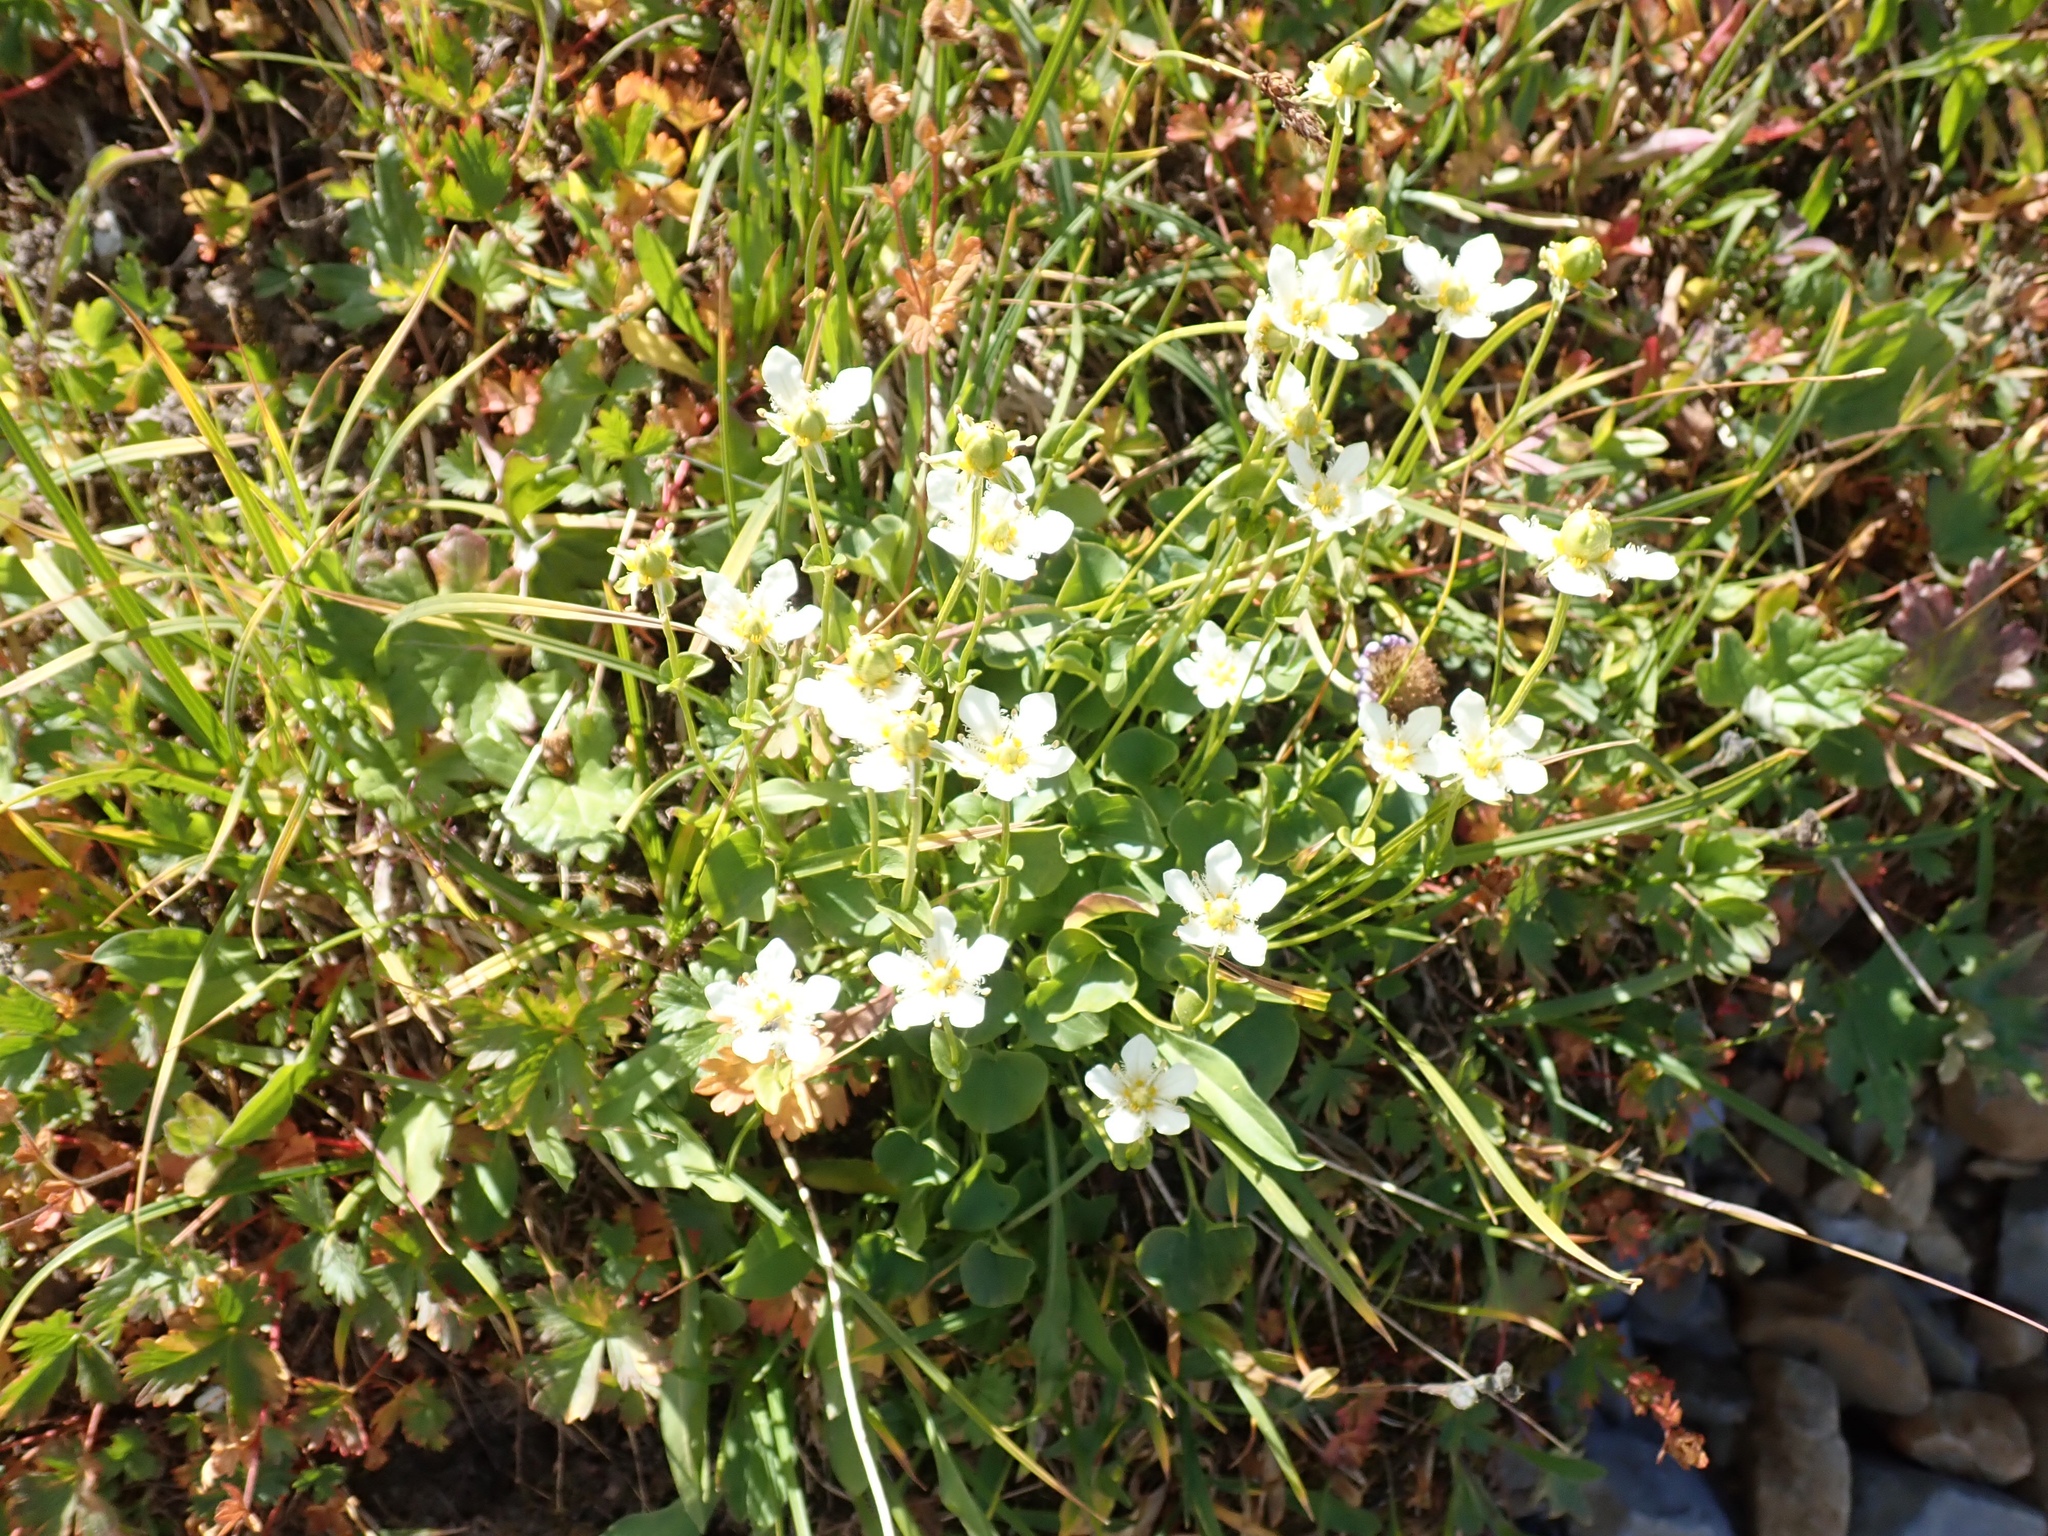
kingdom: Plantae
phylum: Tracheophyta
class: Magnoliopsida
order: Celastrales
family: Parnassiaceae
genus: Parnassia
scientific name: Parnassia fimbriata
